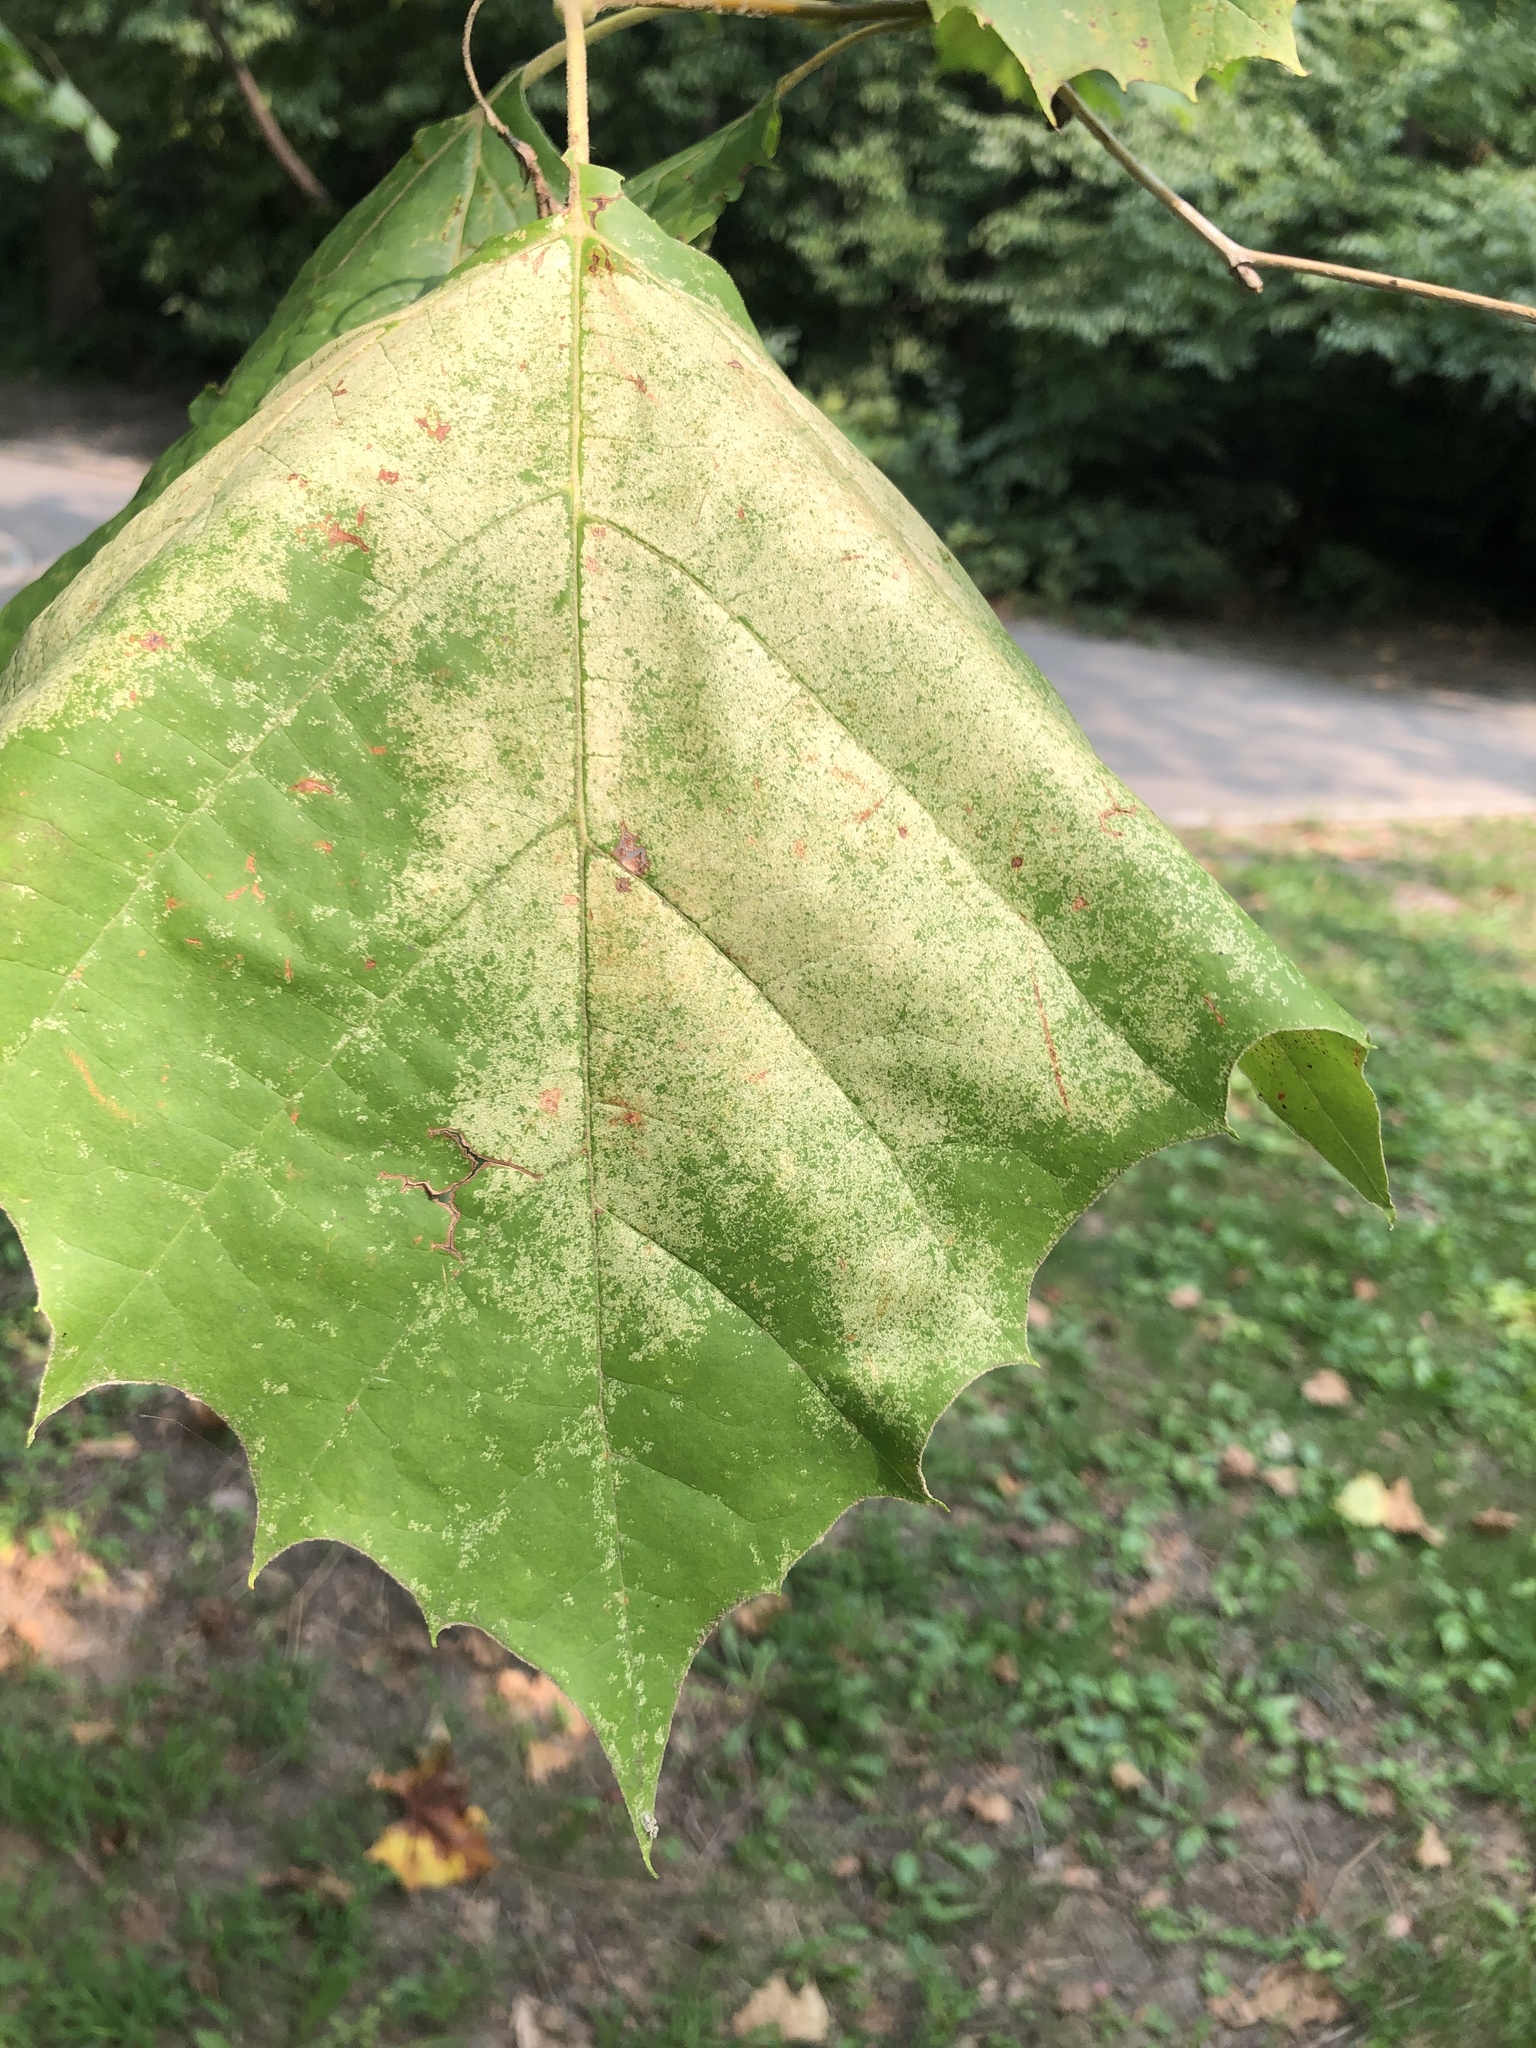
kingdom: Plantae
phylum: Tracheophyta
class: Magnoliopsida
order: Proteales
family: Platanaceae
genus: Platanus
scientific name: Platanus occidentalis
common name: American sycamore
